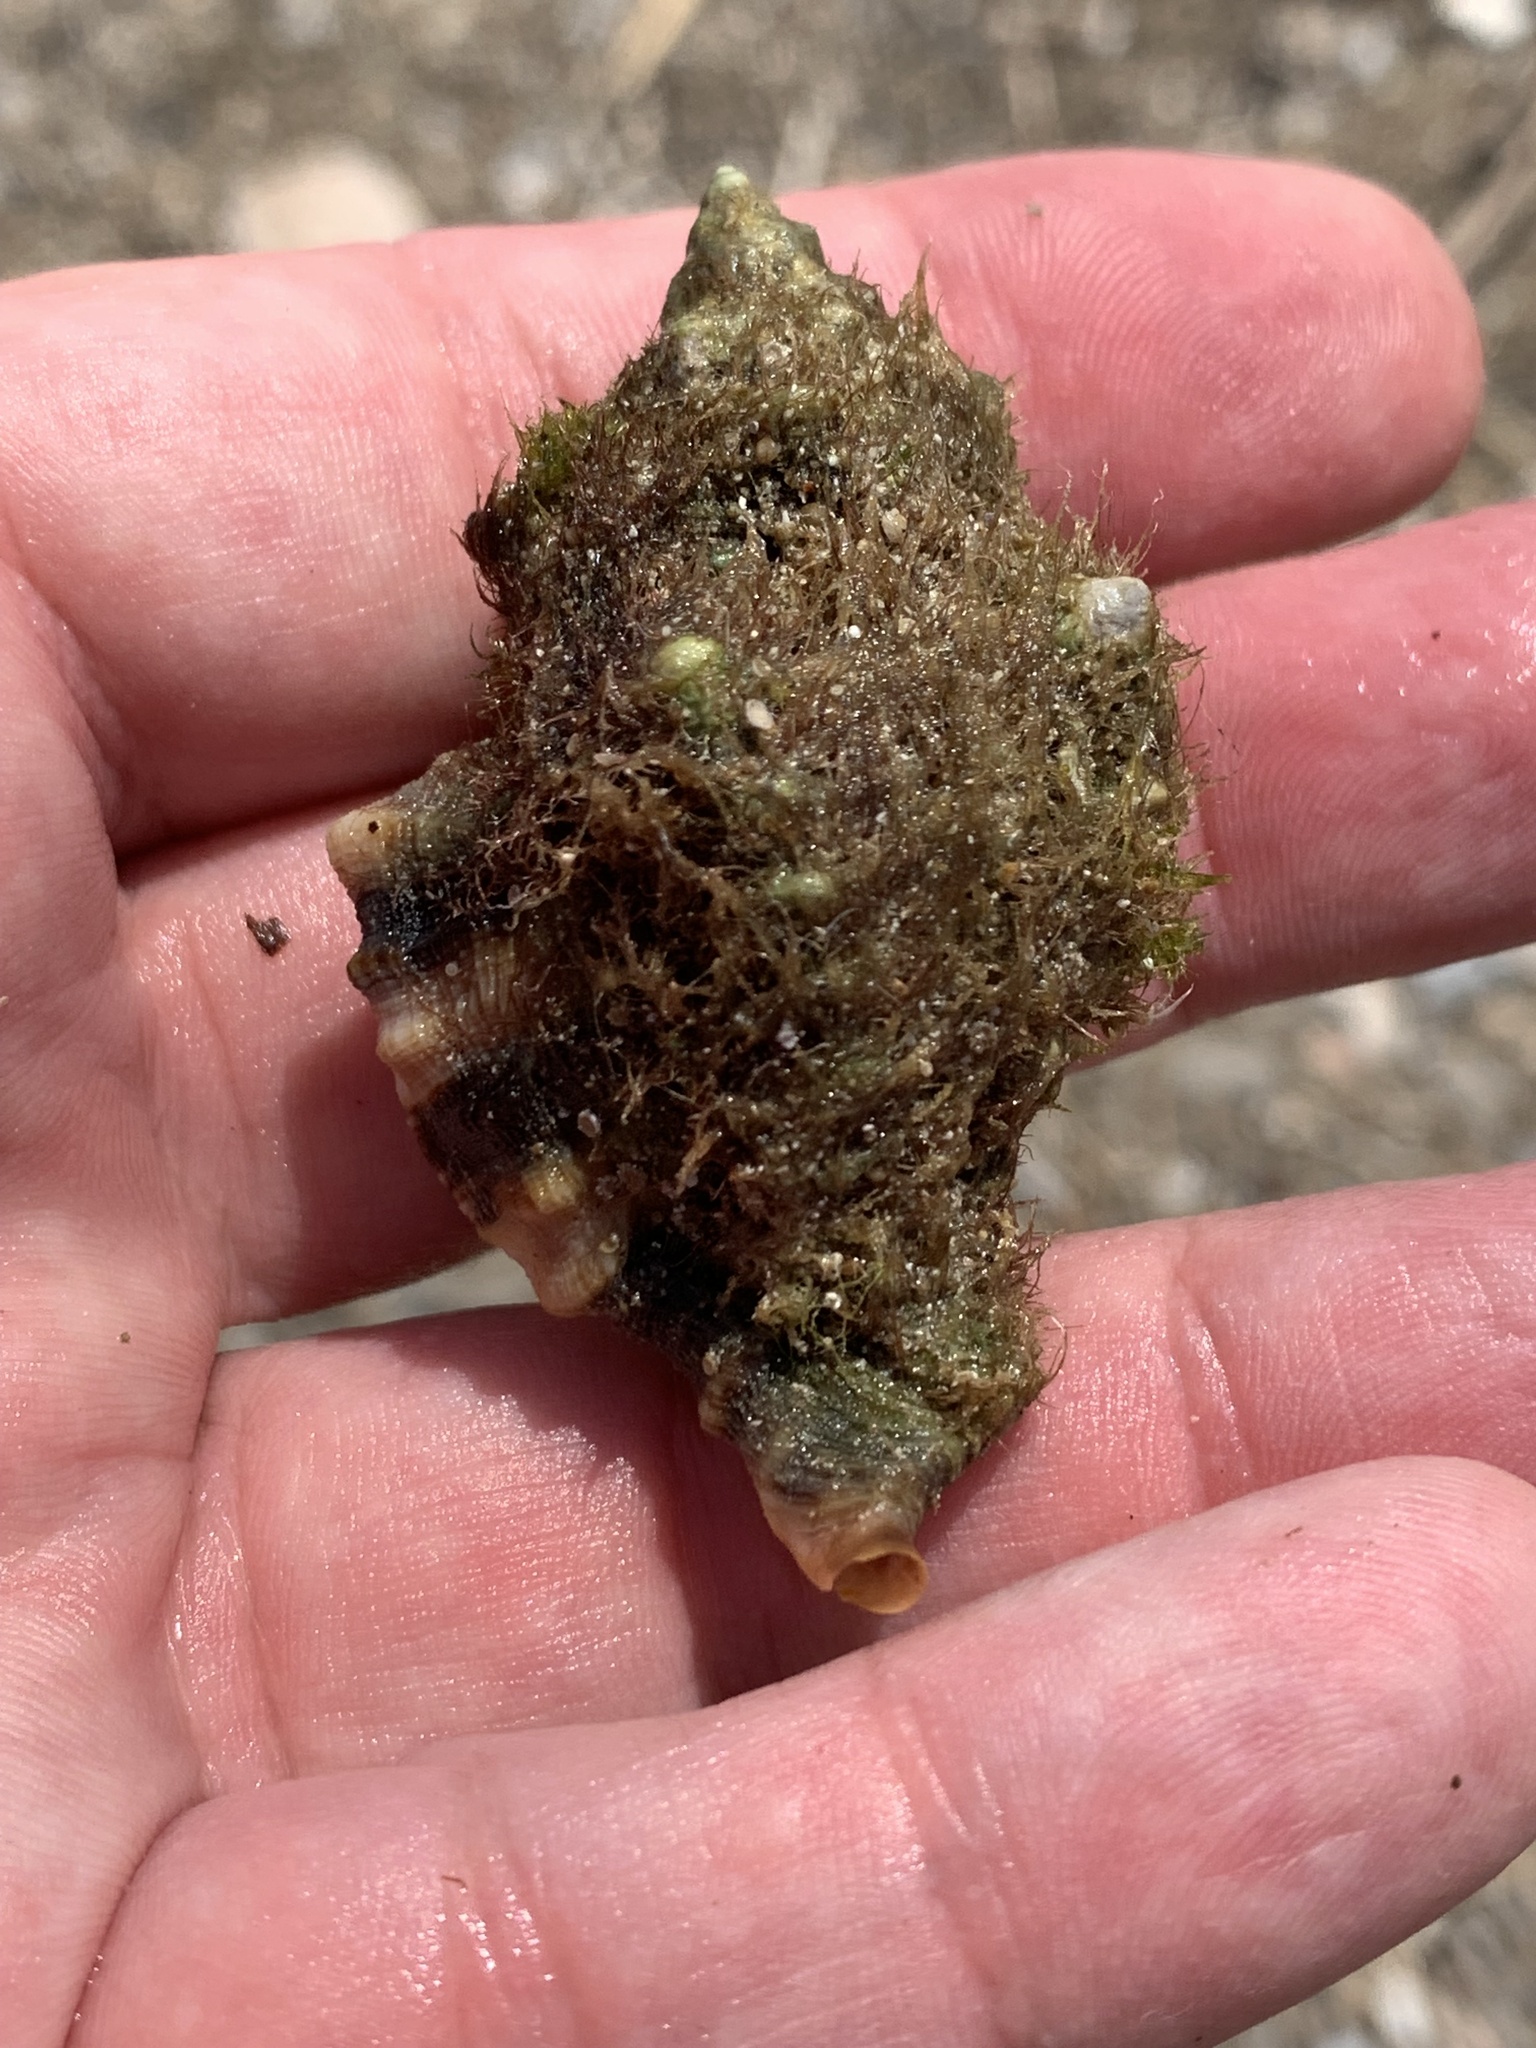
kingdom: Animalia
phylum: Mollusca
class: Gastropoda
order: Neogastropoda
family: Muricidae
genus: Hexaplex
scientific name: Hexaplex trunculus
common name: Banded dye-murex
